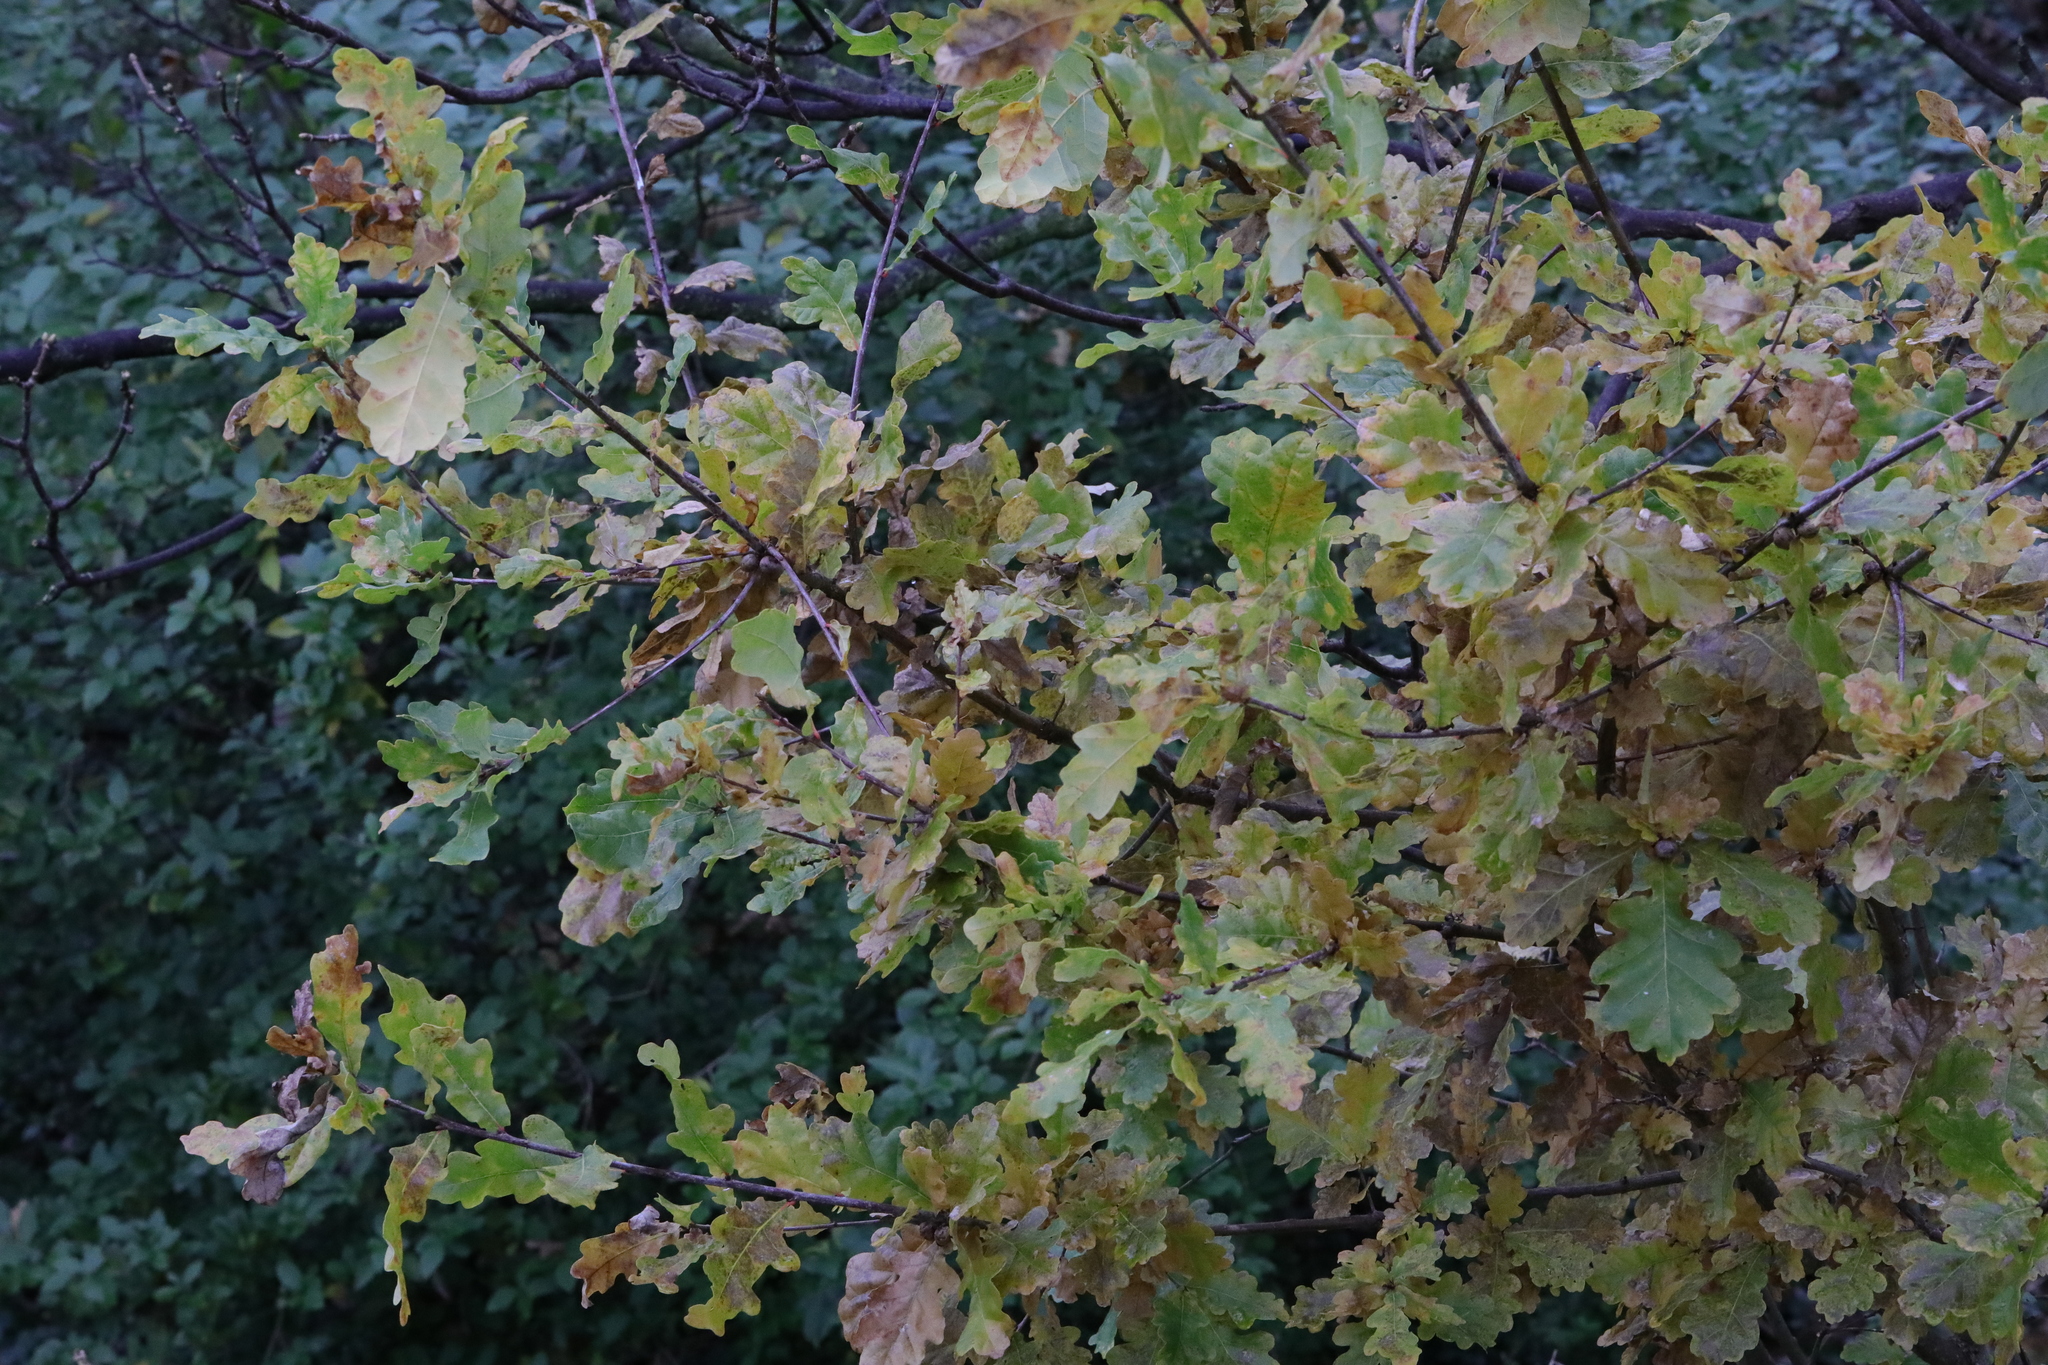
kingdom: Plantae
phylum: Tracheophyta
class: Magnoliopsida
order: Fagales
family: Fagaceae
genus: Quercus
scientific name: Quercus robur
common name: Pedunculate oak
